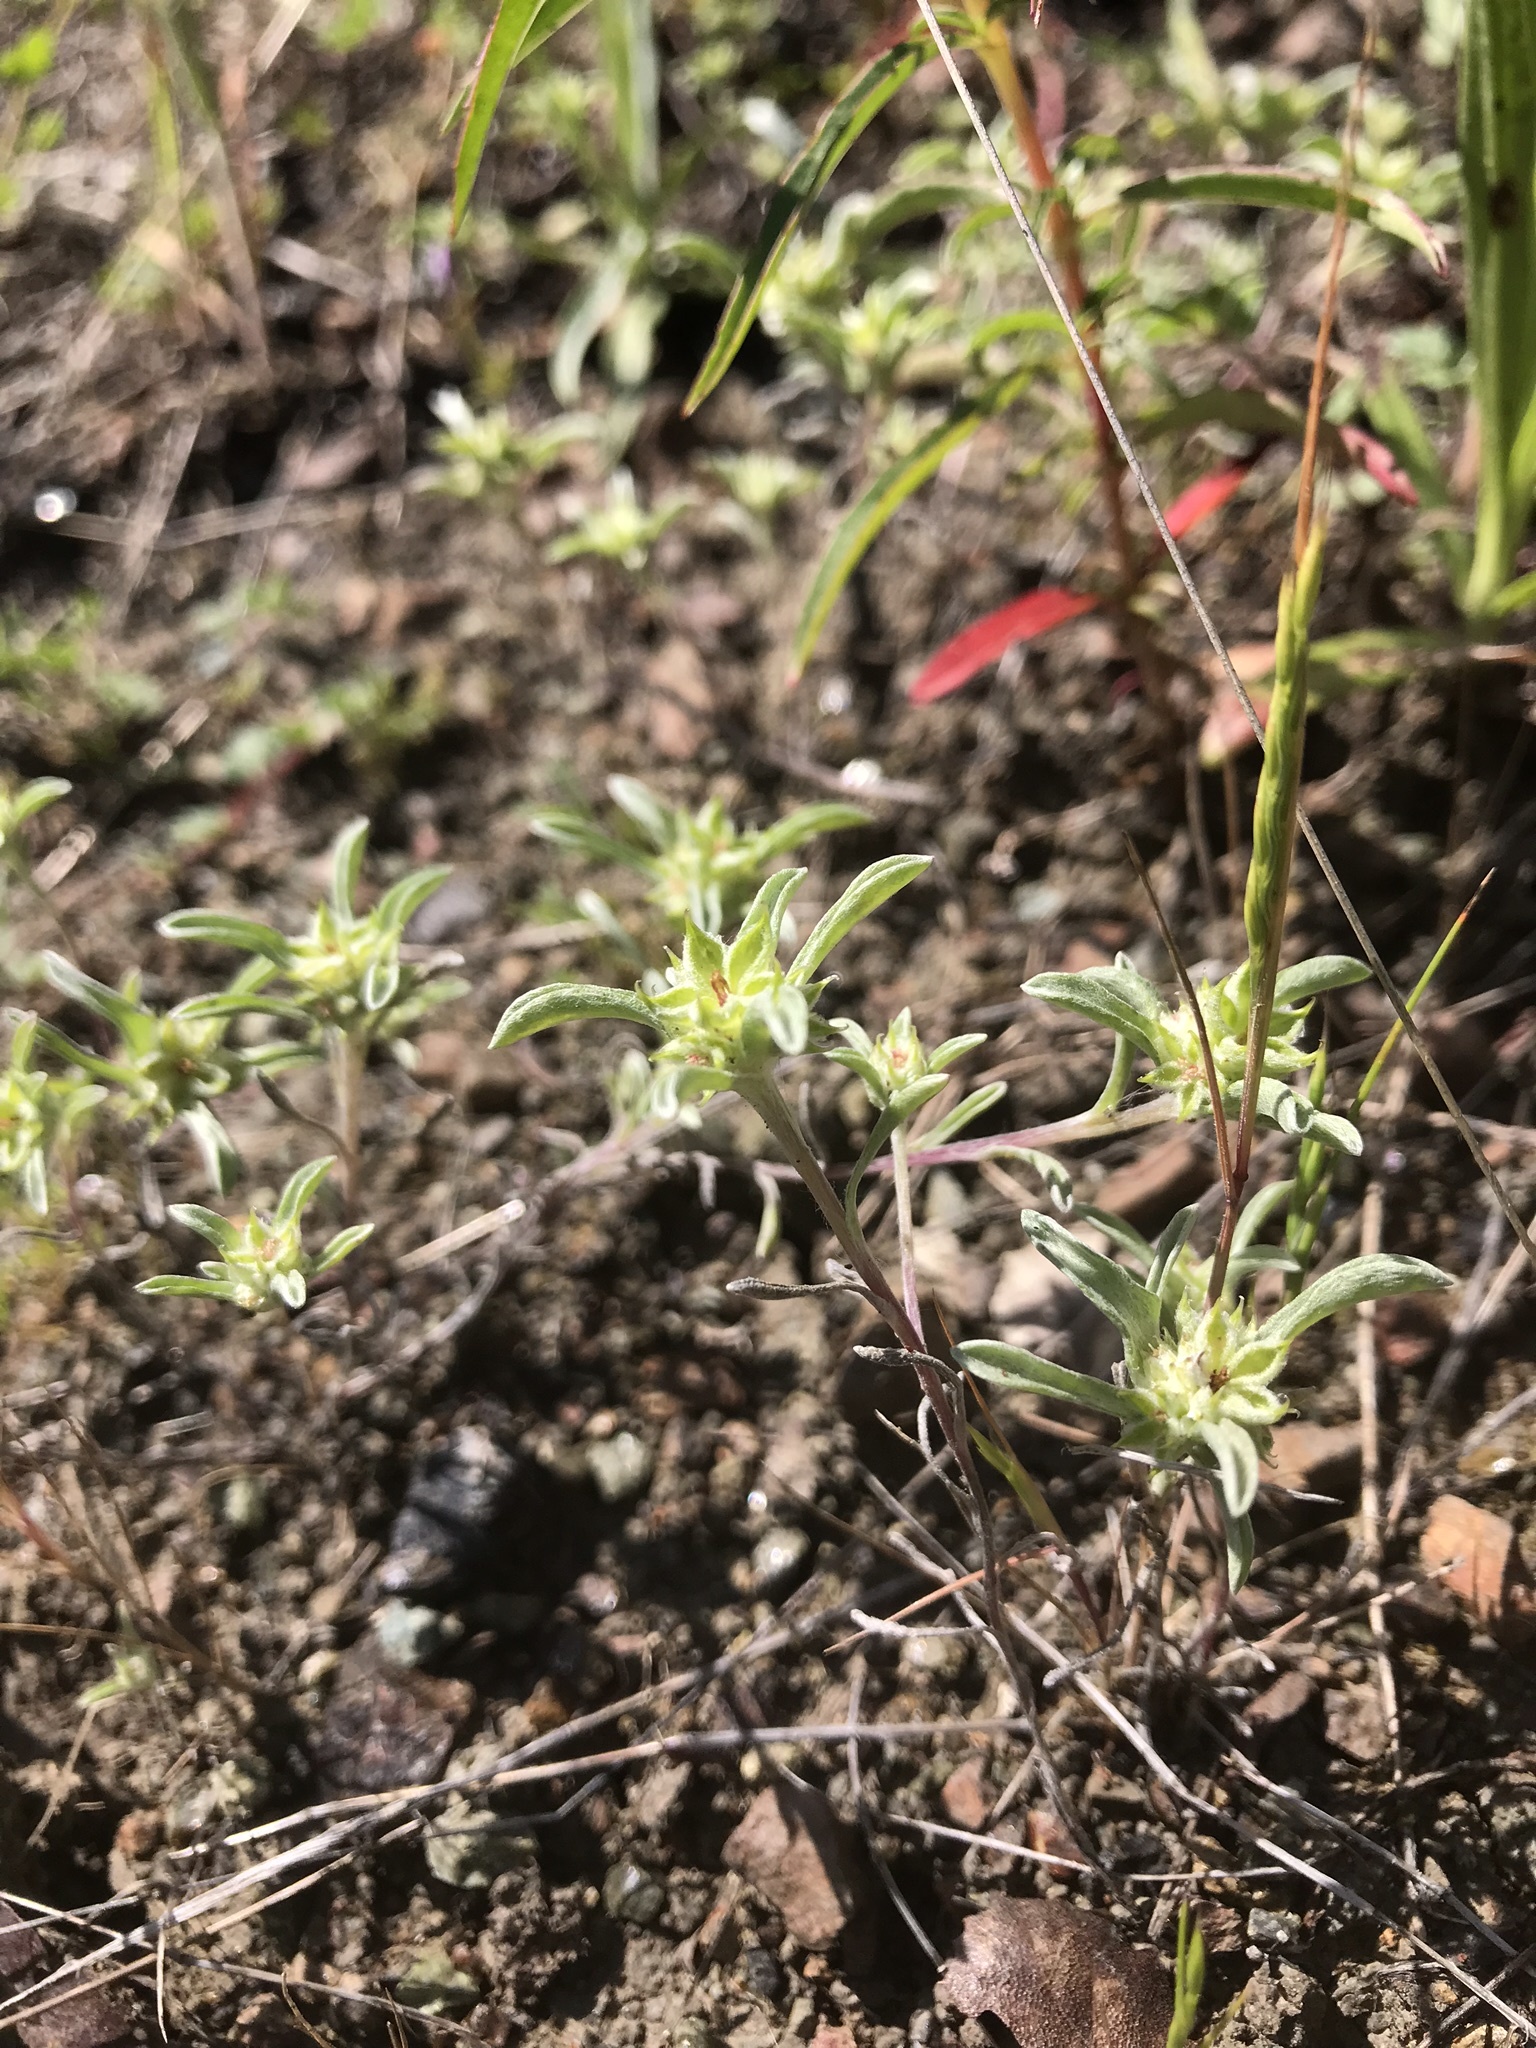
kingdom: Plantae
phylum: Tracheophyta
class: Magnoliopsida
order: Asterales
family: Asteraceae
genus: Ancistrocarphus
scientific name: Ancistrocarphus filagineus
